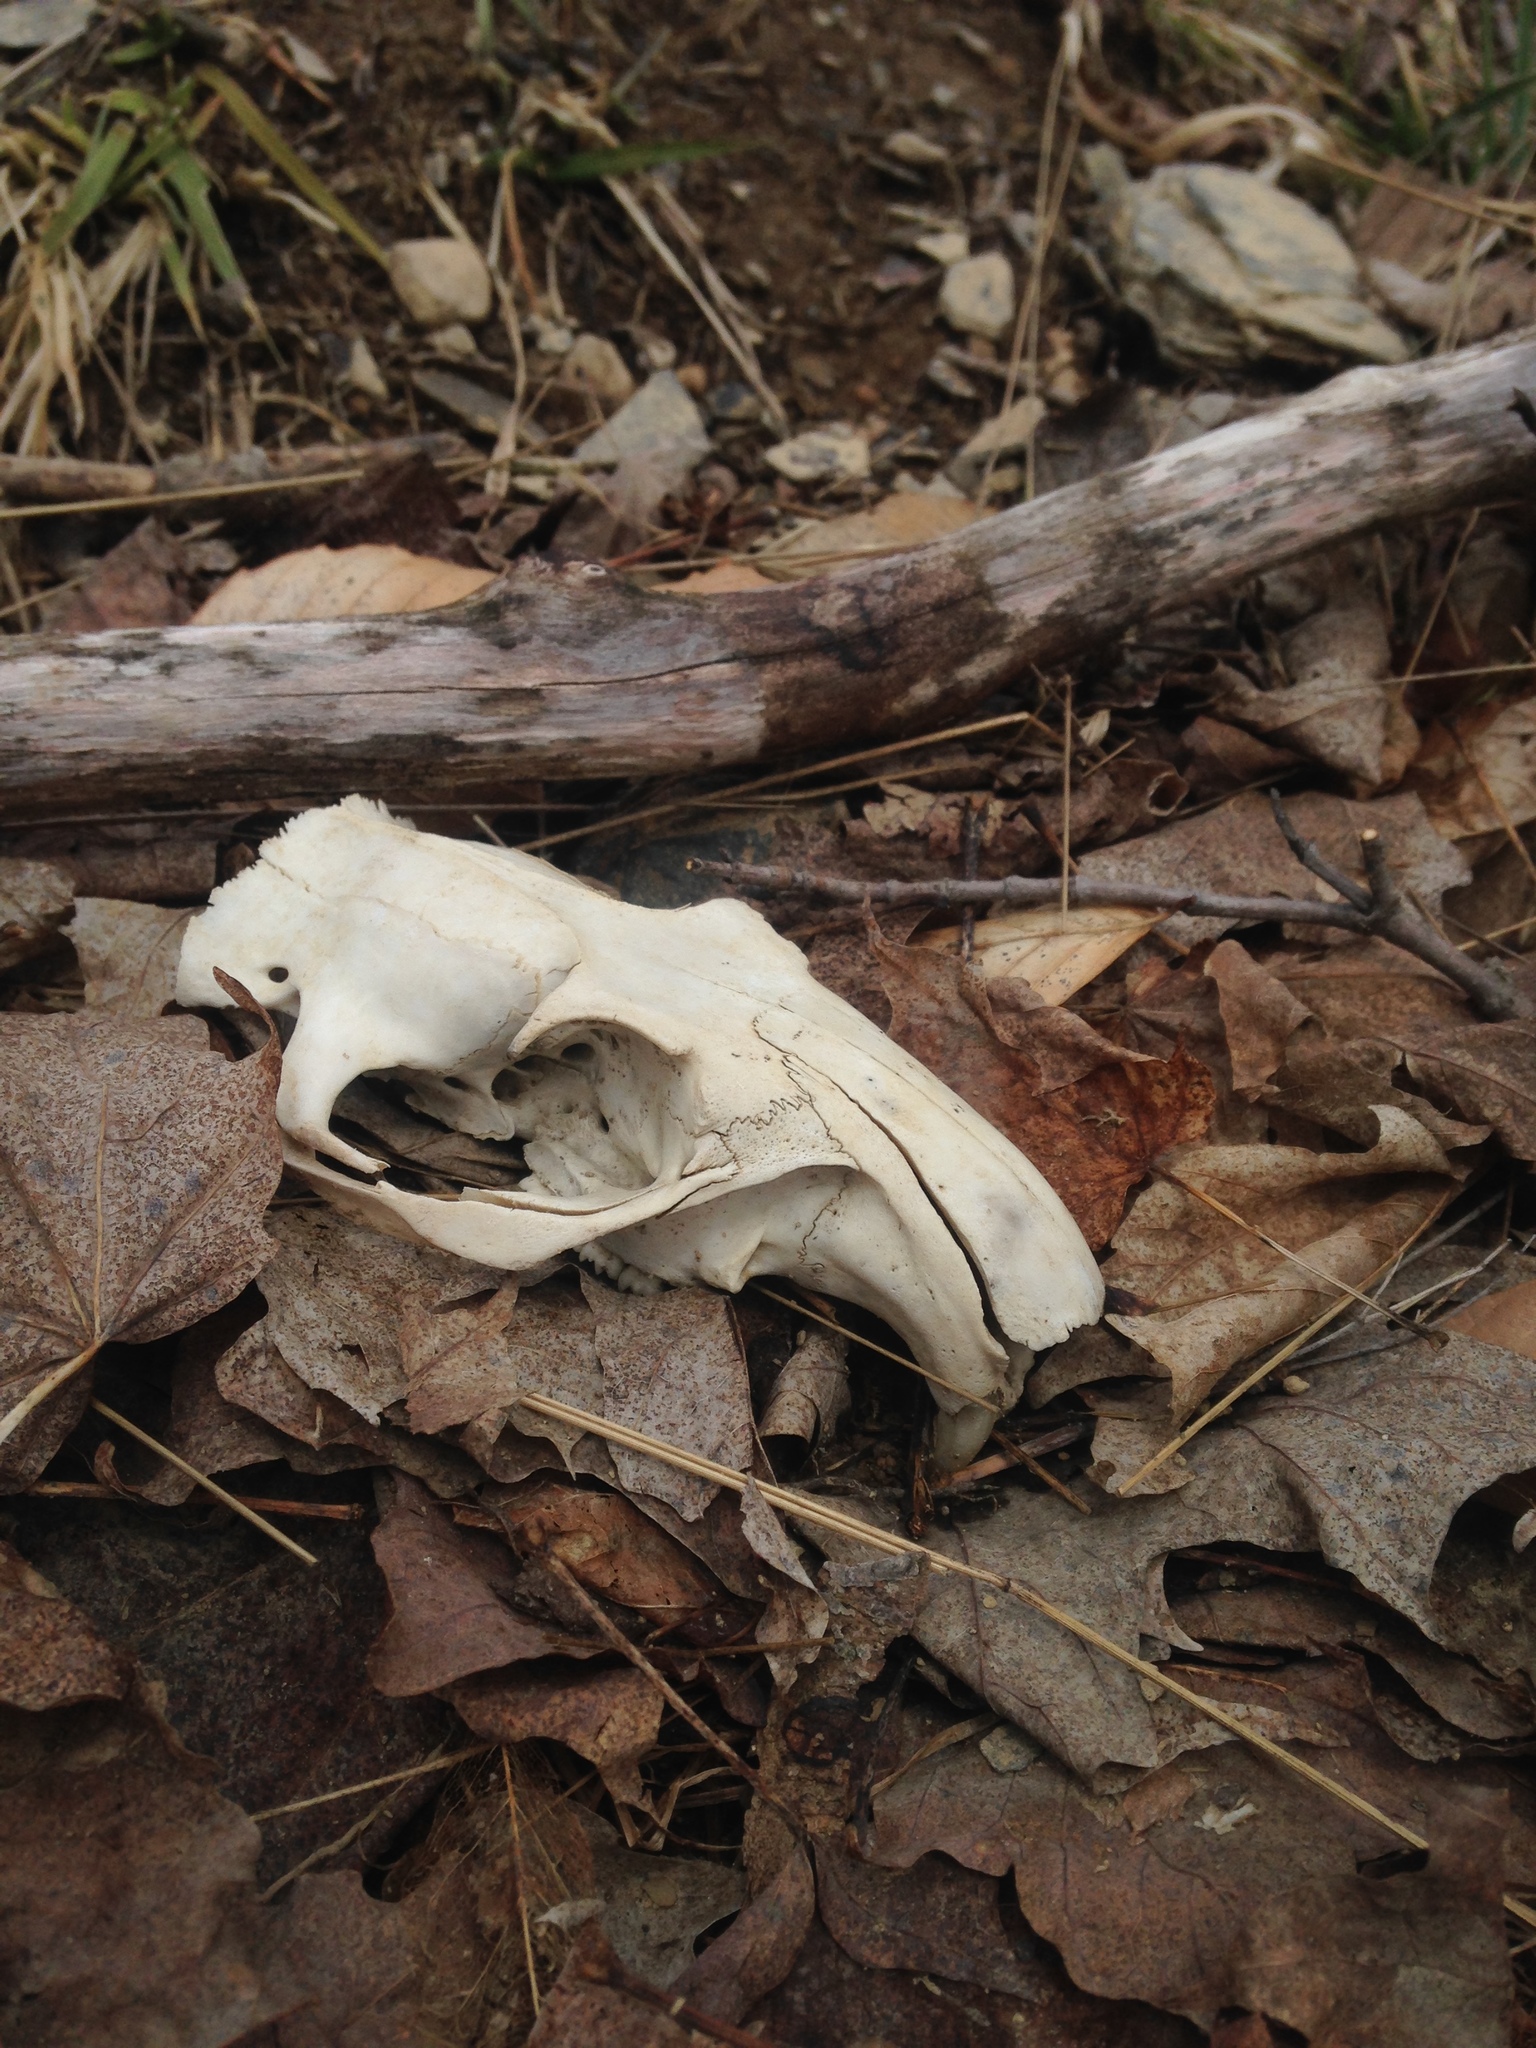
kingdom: Animalia
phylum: Chordata
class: Mammalia
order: Rodentia
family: Sciuridae
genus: Marmota
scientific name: Marmota monax
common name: Groundhog
